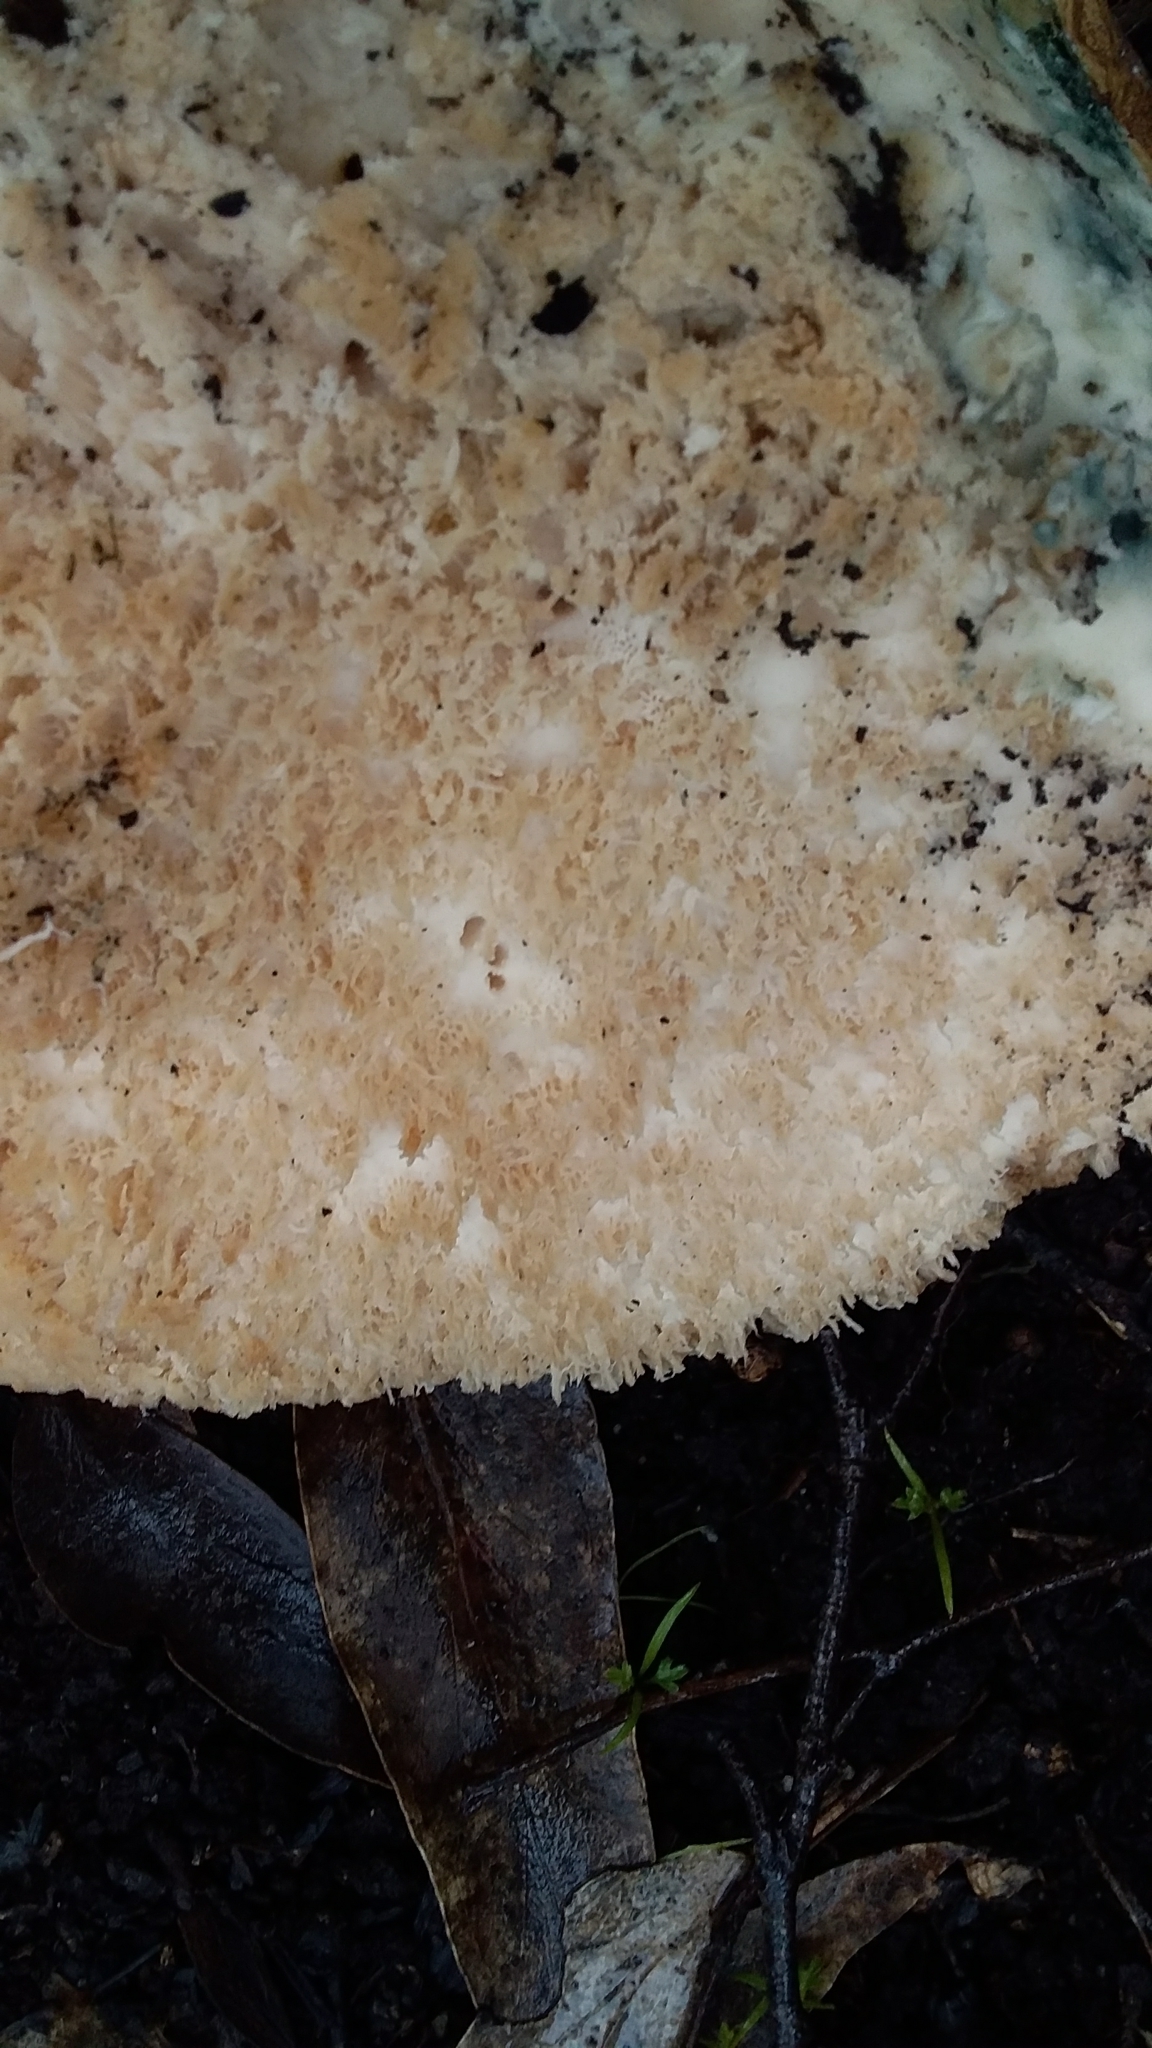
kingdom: Fungi
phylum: Basidiomycota
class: Agaricomycetes
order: Polyporales
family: Laetiporaceae
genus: Laetiporus
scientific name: Laetiporus portentosus
